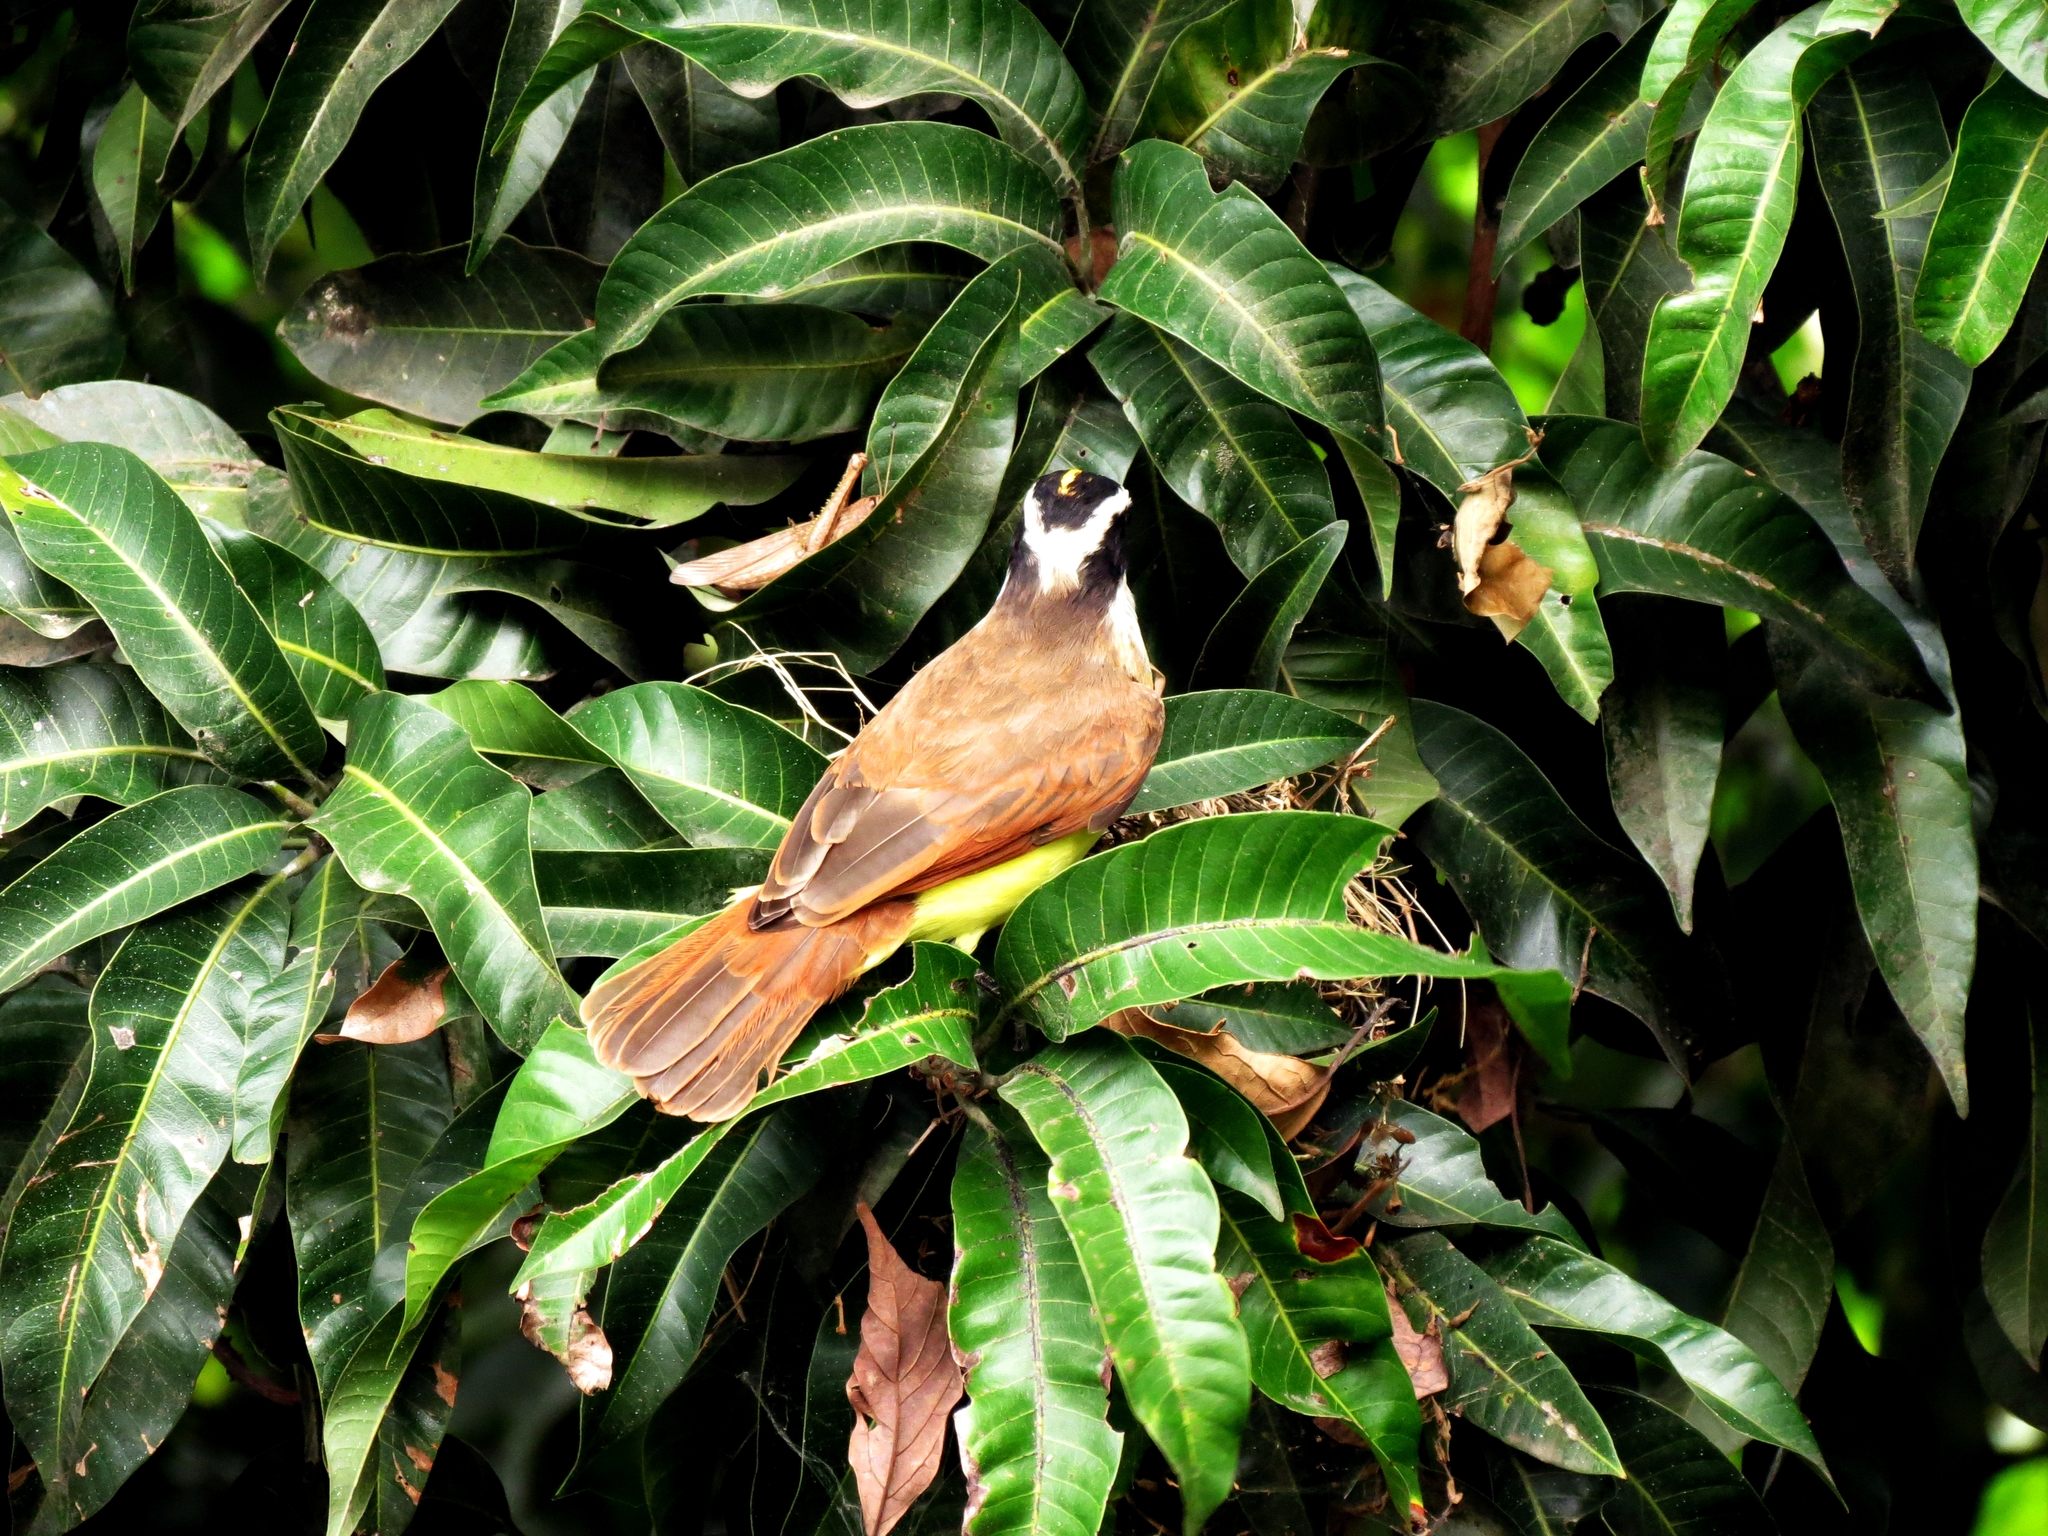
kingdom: Animalia
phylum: Chordata
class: Aves
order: Passeriformes
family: Tyrannidae
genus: Pitangus
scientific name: Pitangus sulphuratus
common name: Great kiskadee
